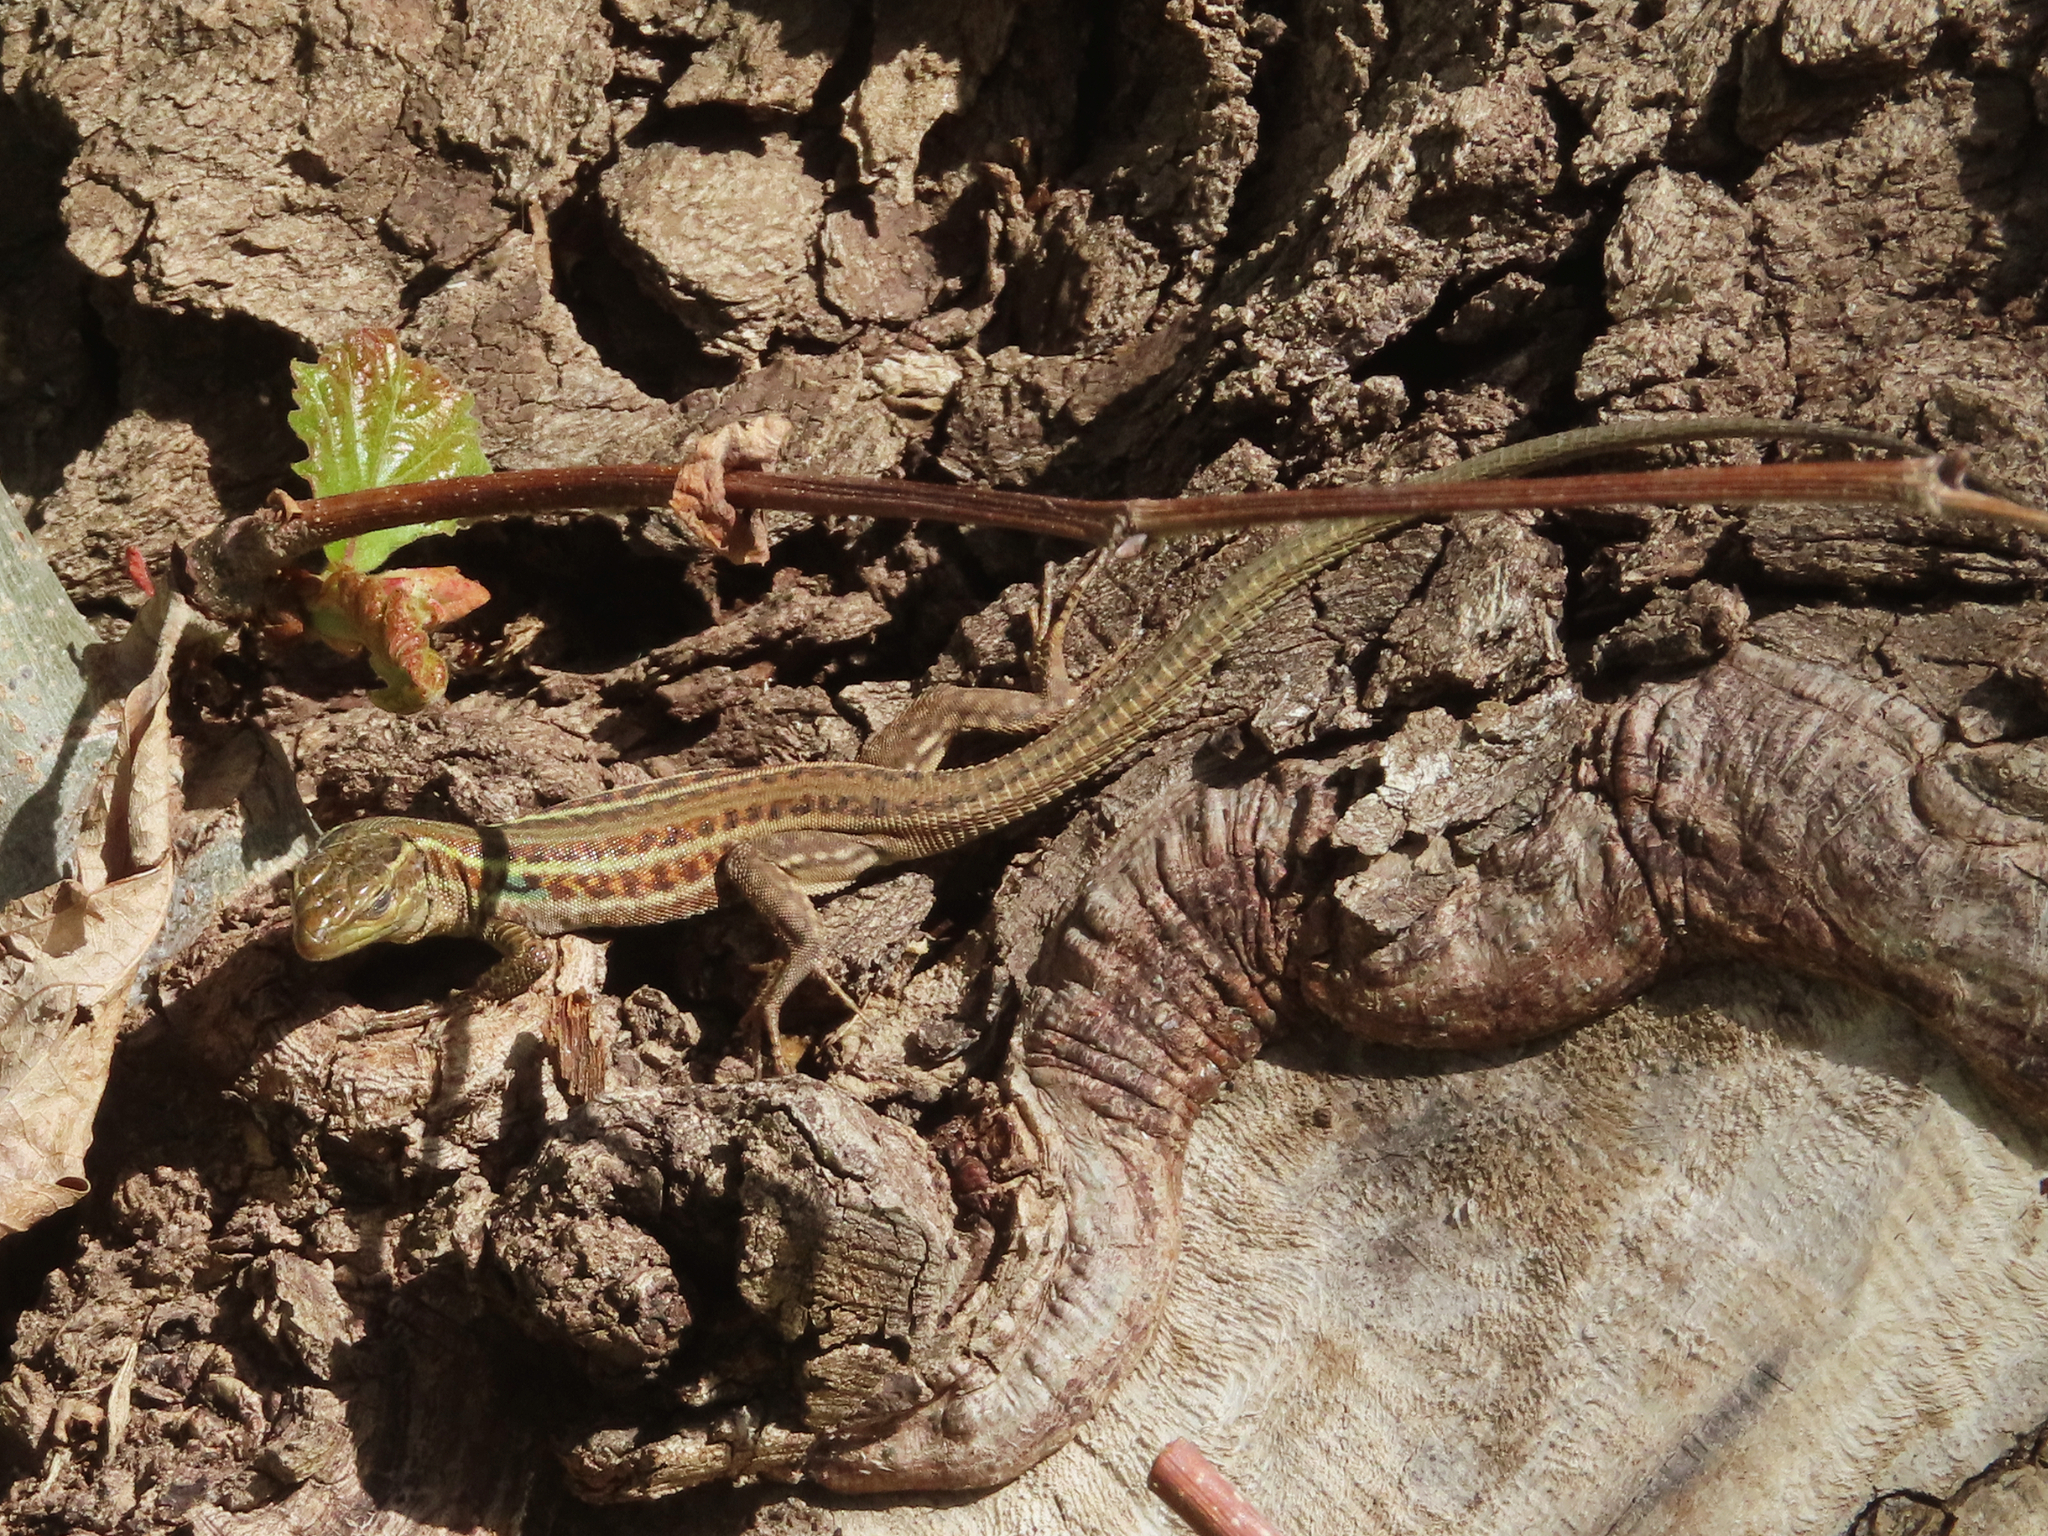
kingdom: Animalia
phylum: Chordata
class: Squamata
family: Lacertidae
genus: Podarcis
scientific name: Podarcis peloponnesiacus
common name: Peloponnese wall lizard
